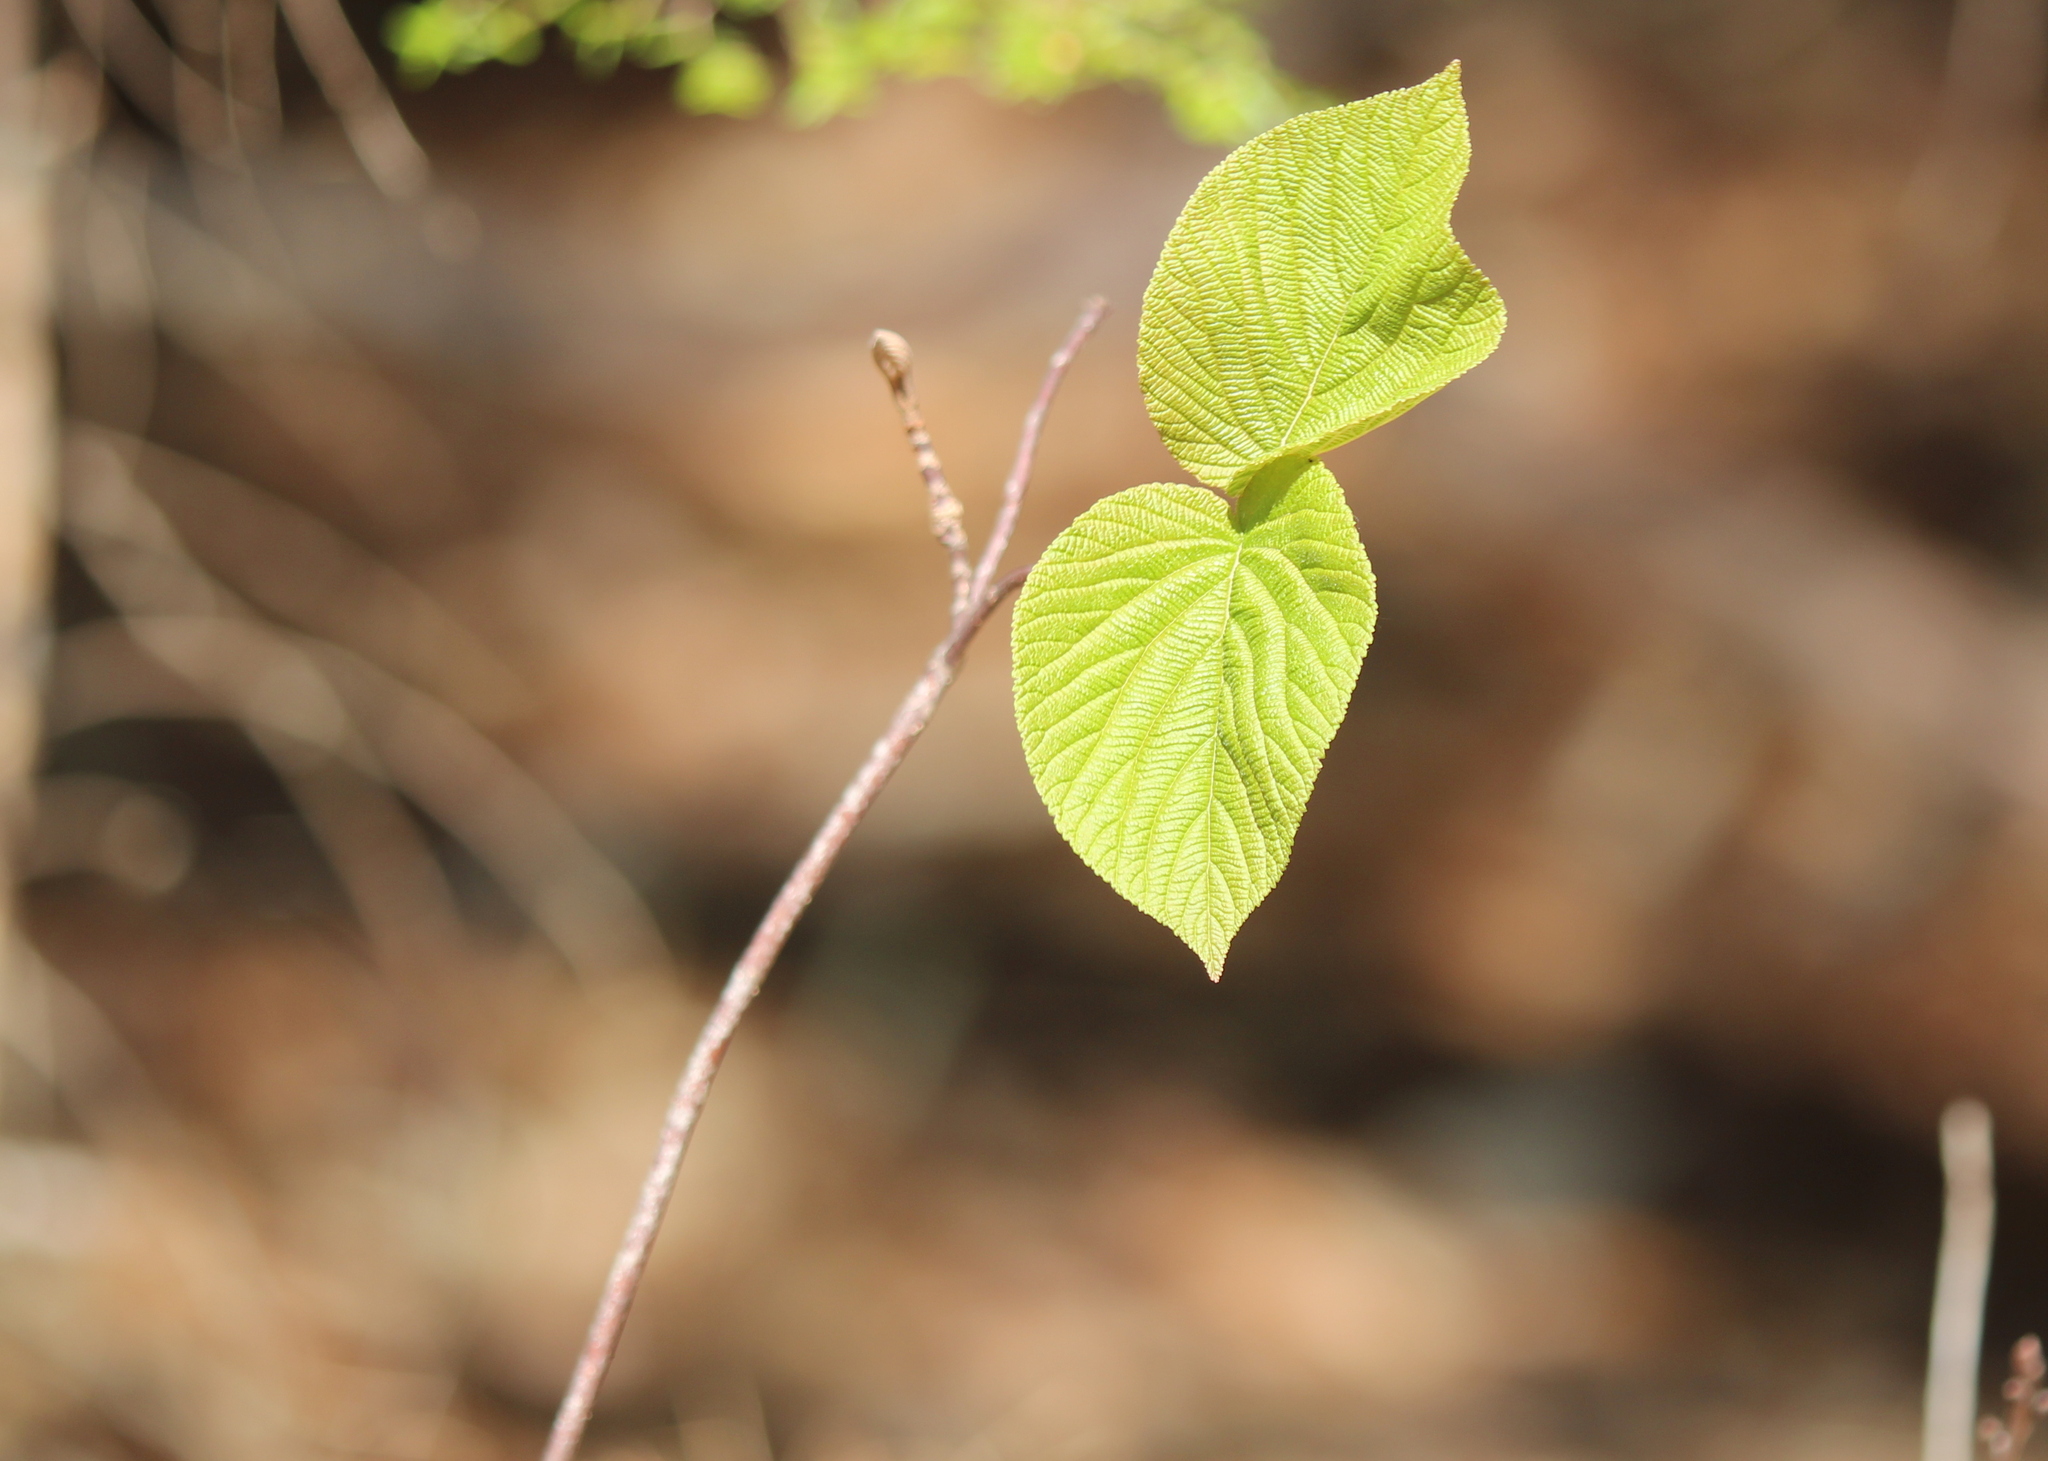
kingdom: Plantae
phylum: Tracheophyta
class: Magnoliopsida
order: Dipsacales
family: Viburnaceae
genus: Viburnum
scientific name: Viburnum lantanoides
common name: Hobblebush
